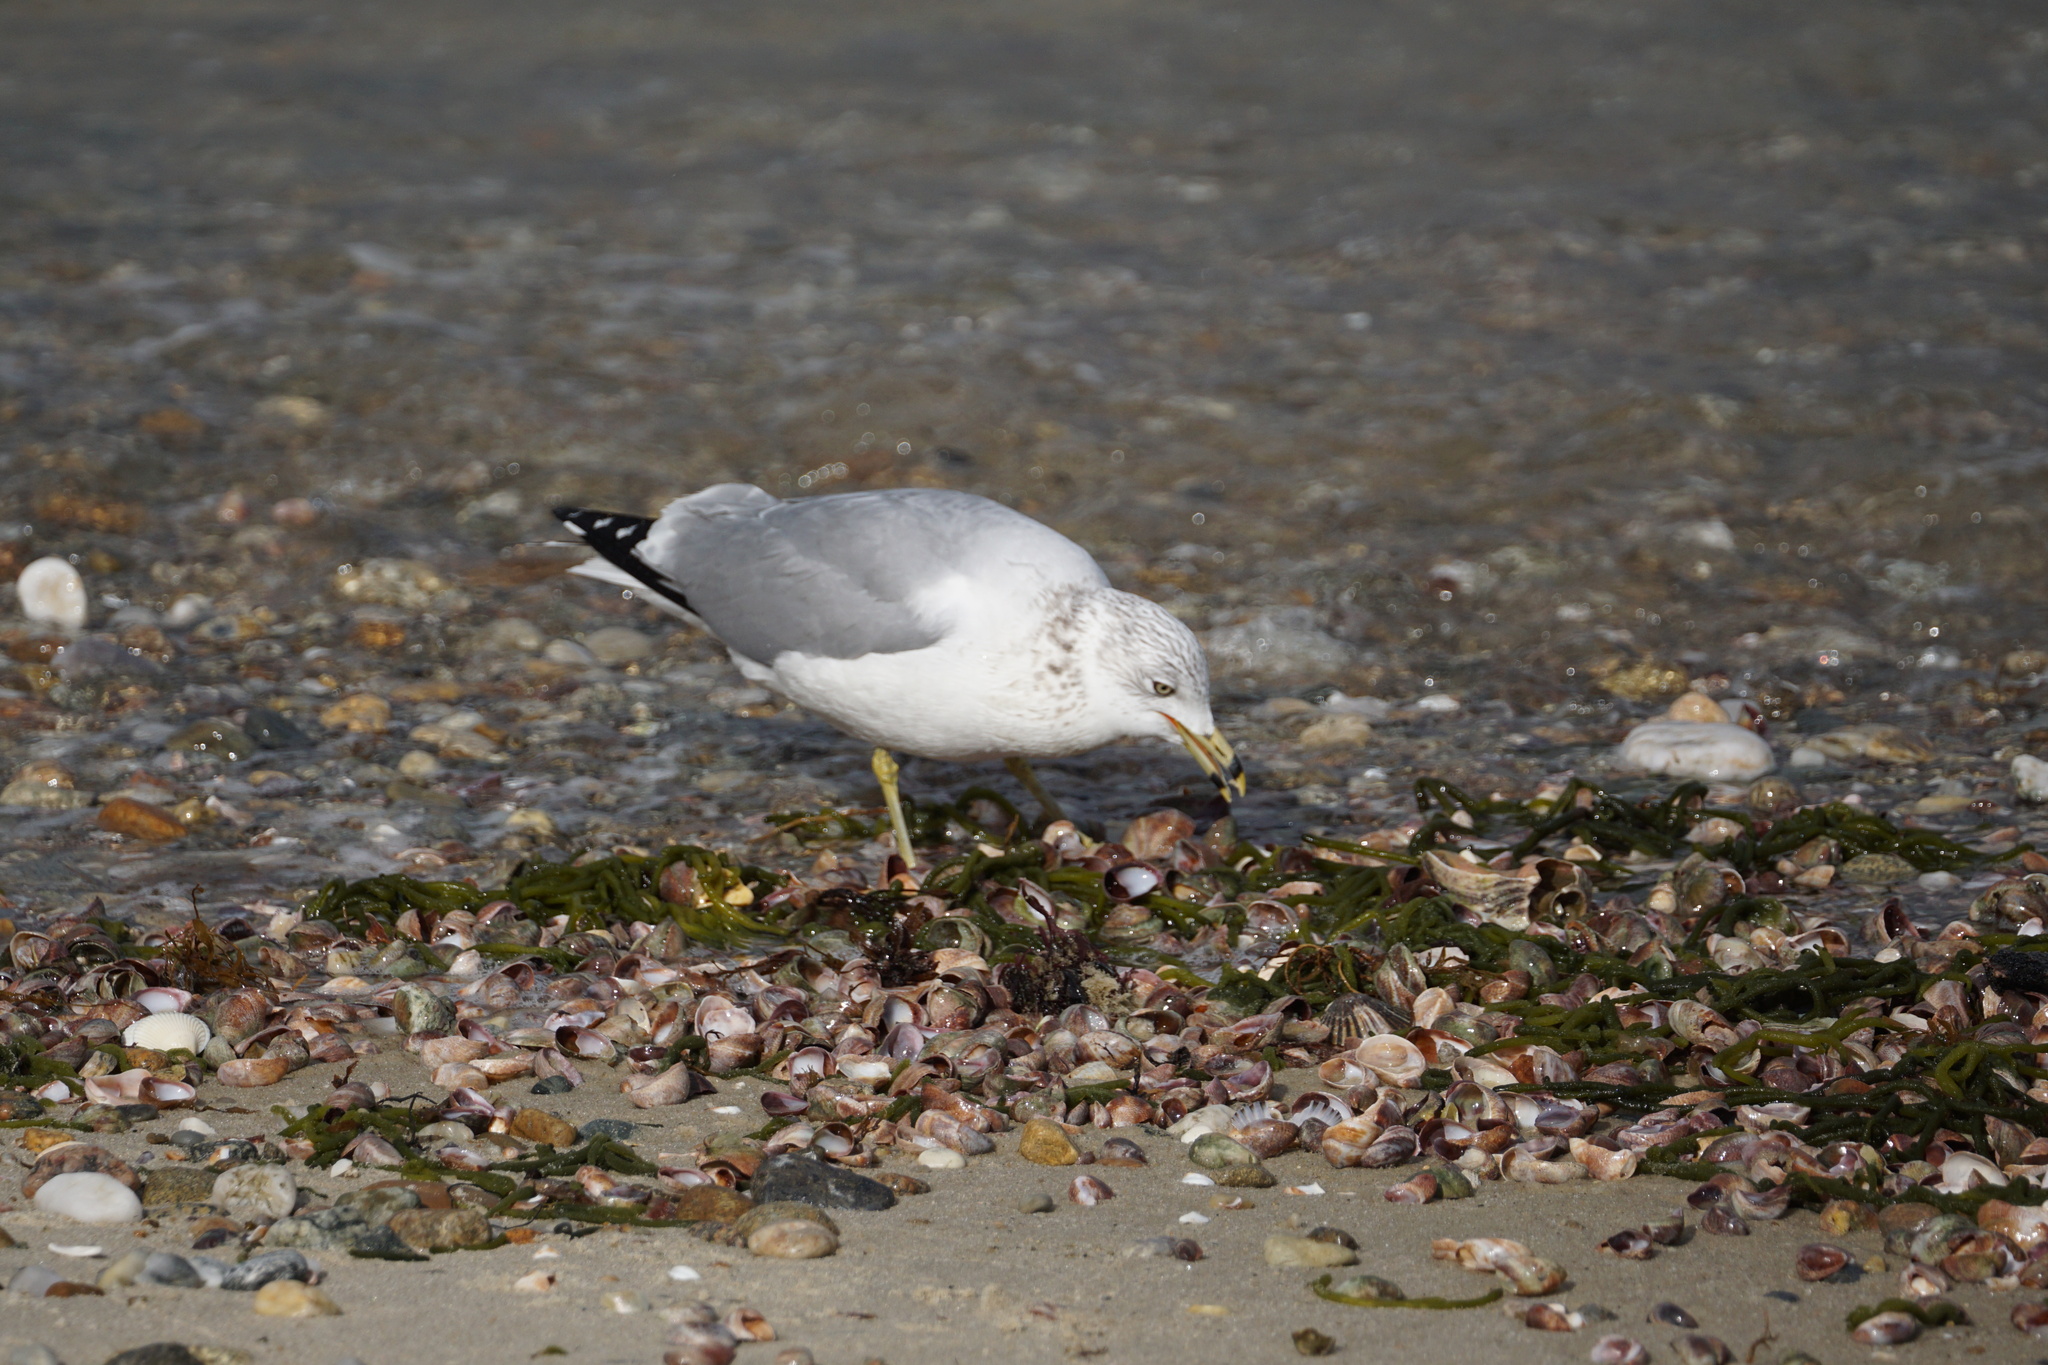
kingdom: Animalia
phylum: Chordata
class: Aves
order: Charadriiformes
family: Laridae
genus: Larus
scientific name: Larus delawarensis
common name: Ring-billed gull
